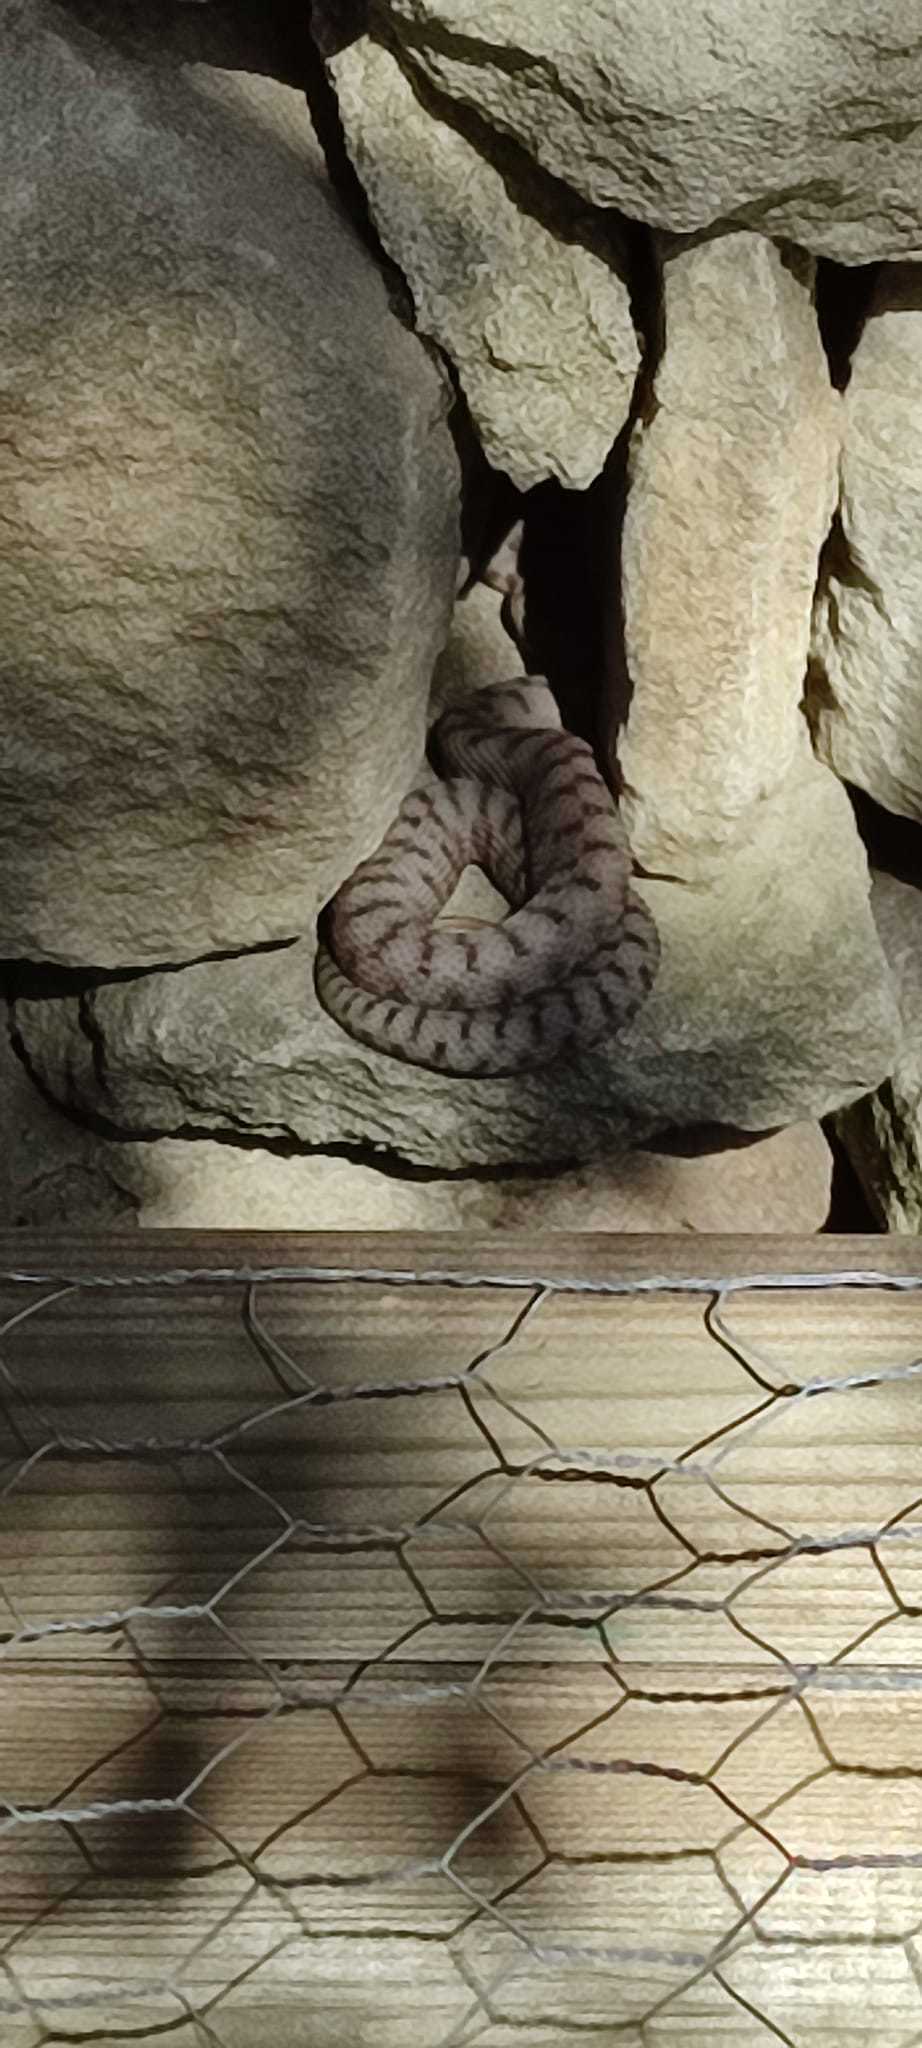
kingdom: Animalia
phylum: Chordata
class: Squamata
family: Viperidae
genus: Vipera
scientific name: Vipera aspis
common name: Asp viper
